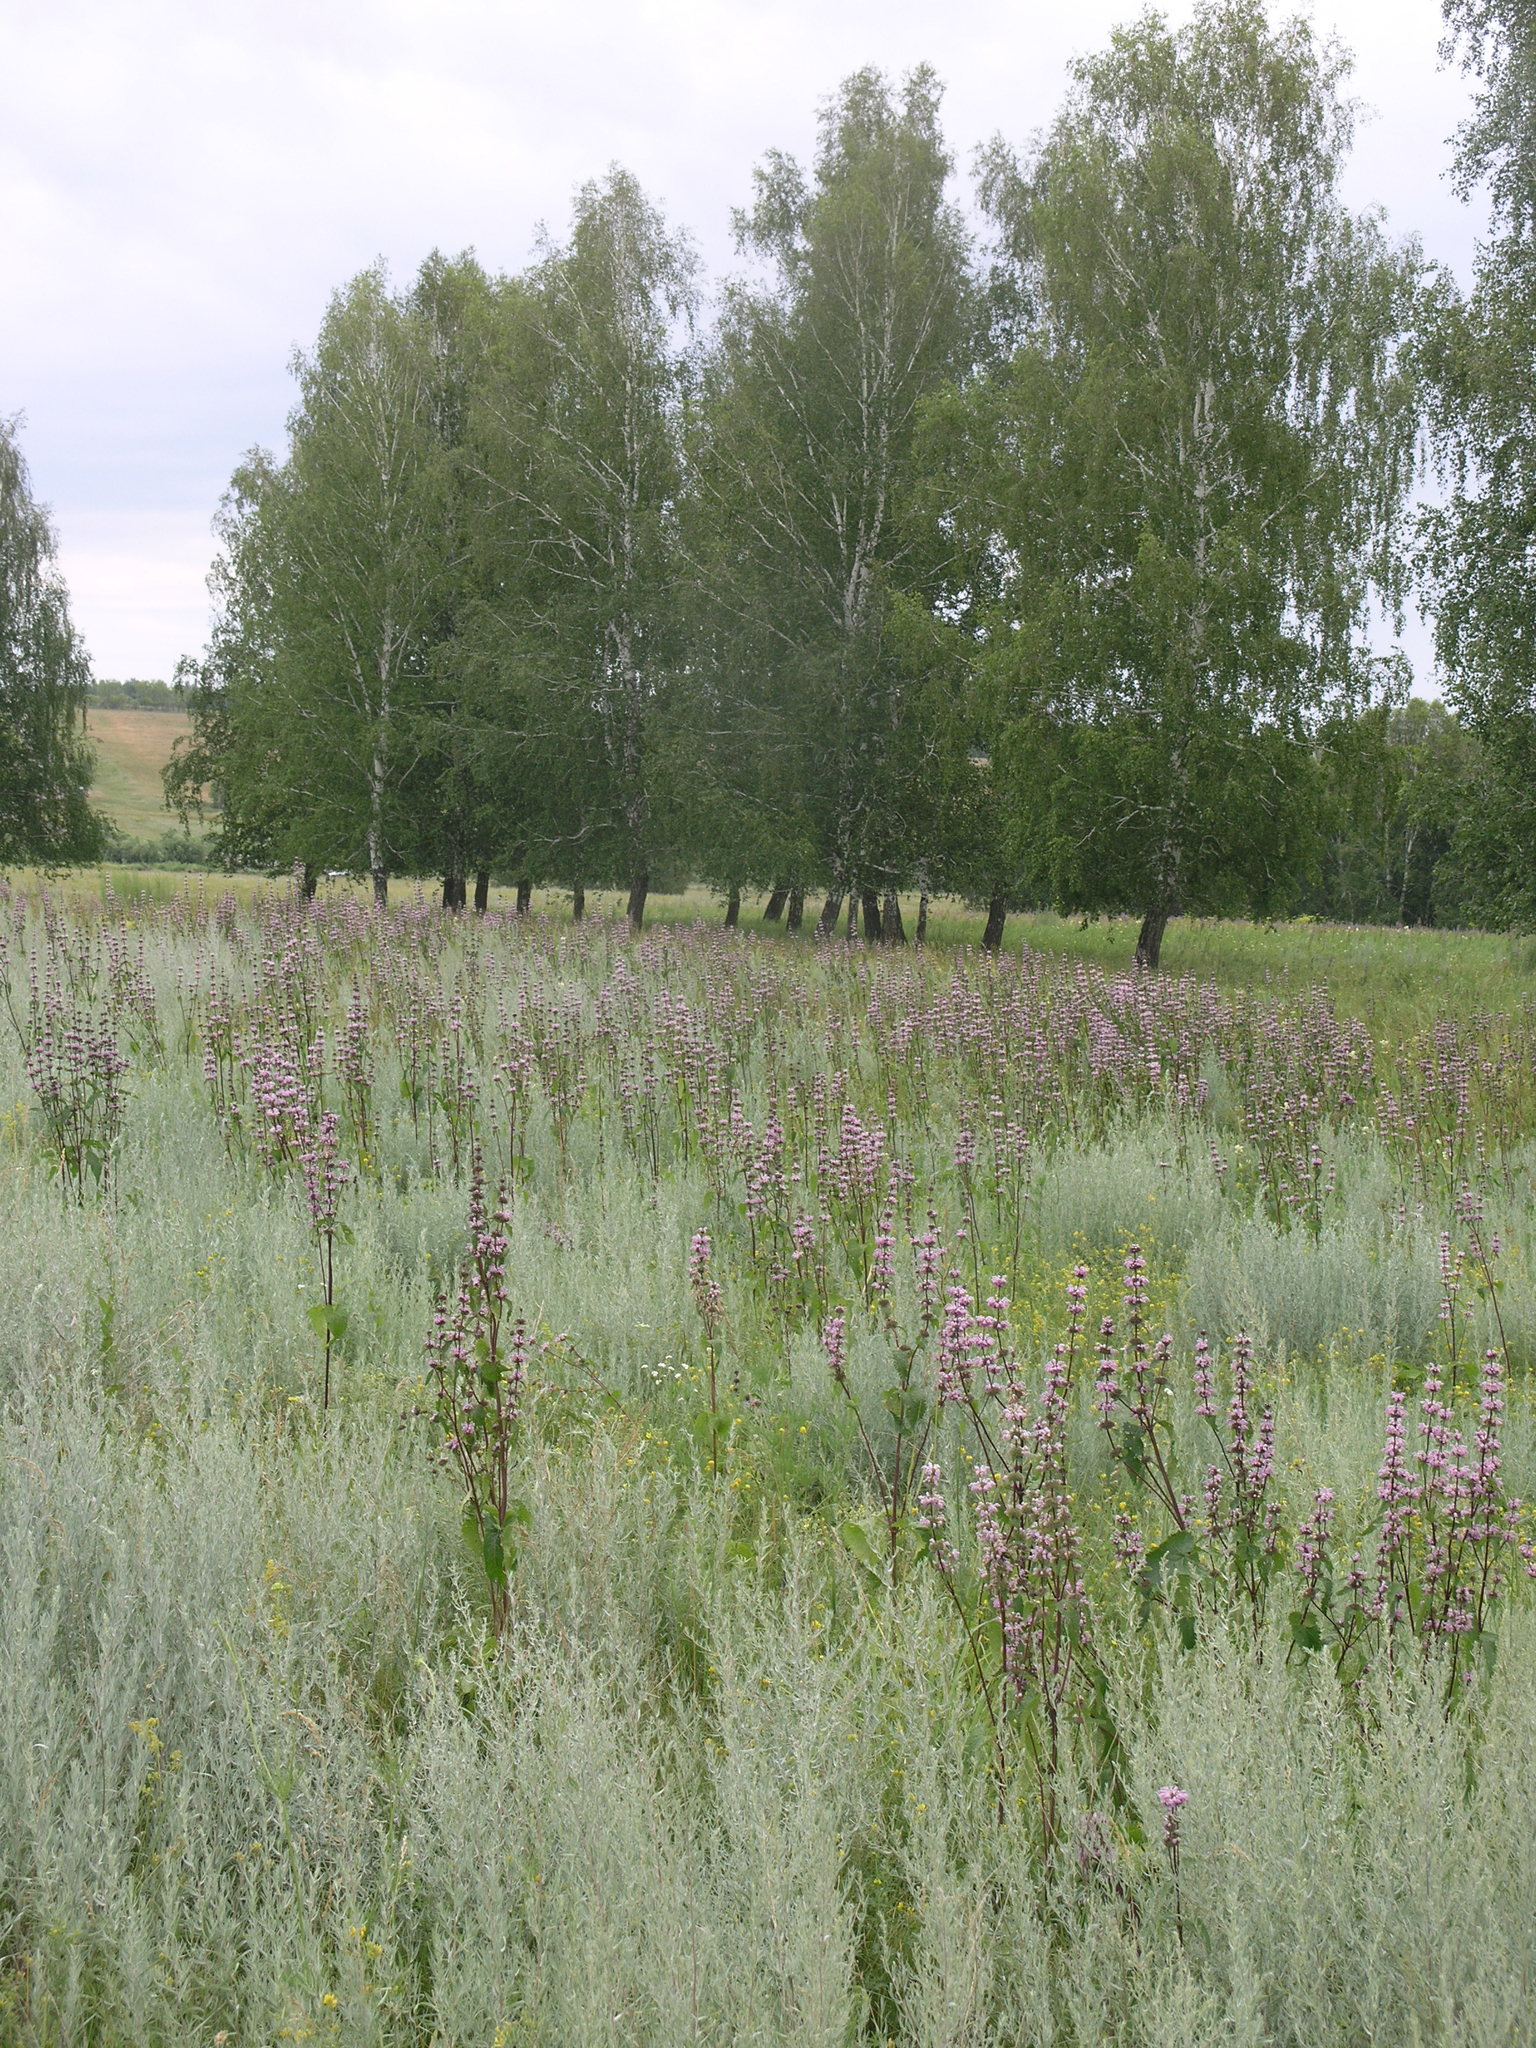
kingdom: Plantae
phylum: Tracheophyta
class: Magnoliopsida
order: Fagales
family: Betulaceae
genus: Betula
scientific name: Betula pendula
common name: Silver birch
